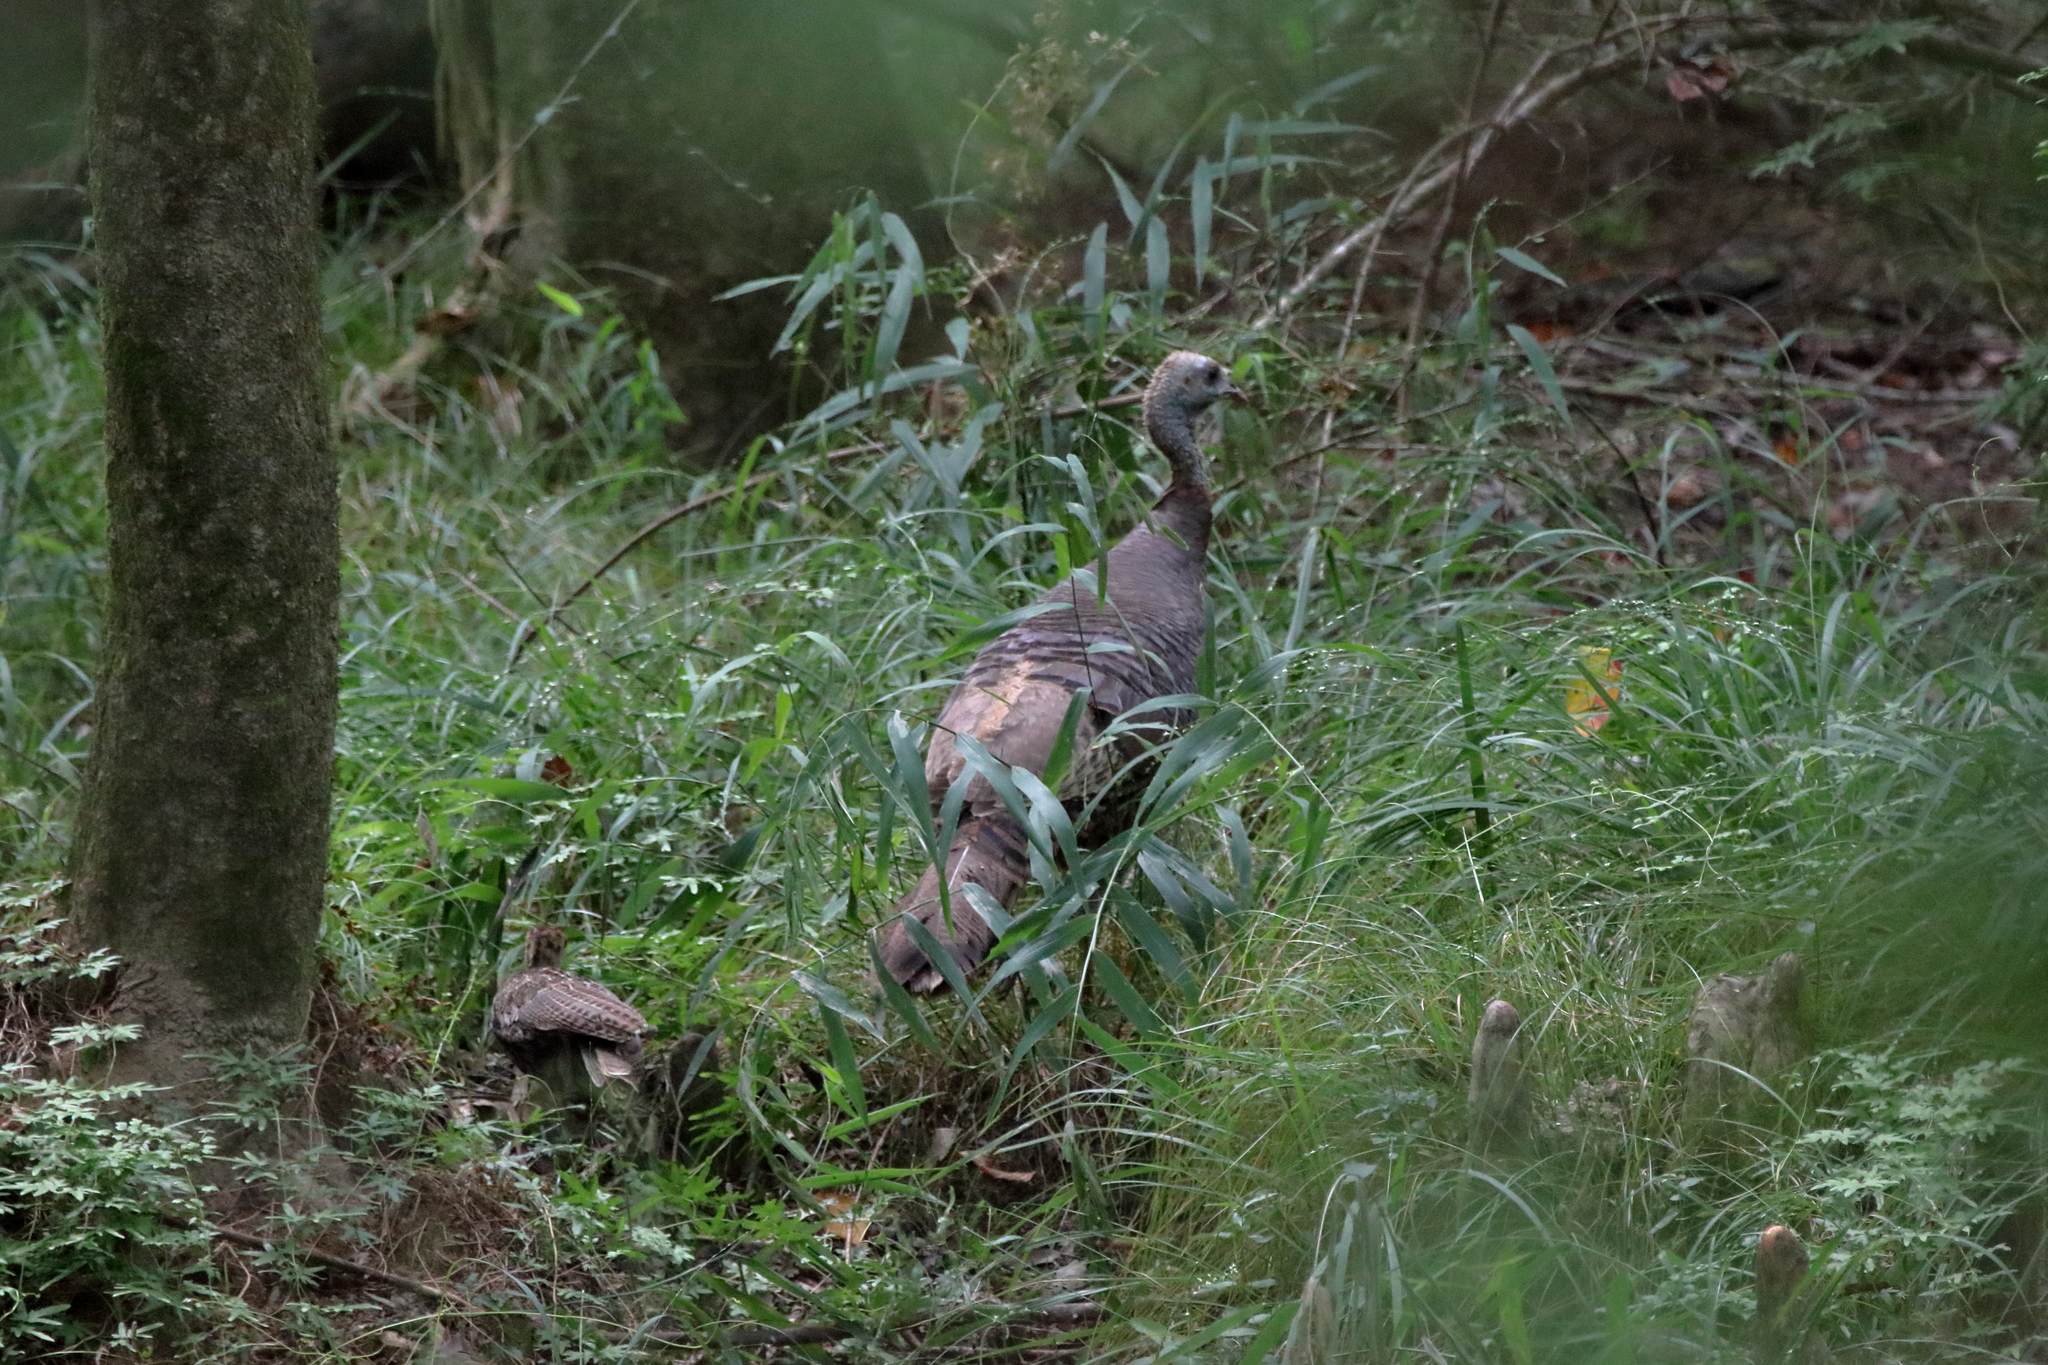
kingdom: Animalia
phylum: Chordata
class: Aves
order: Galliformes
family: Phasianidae
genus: Meleagris
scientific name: Meleagris gallopavo
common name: Wild turkey
